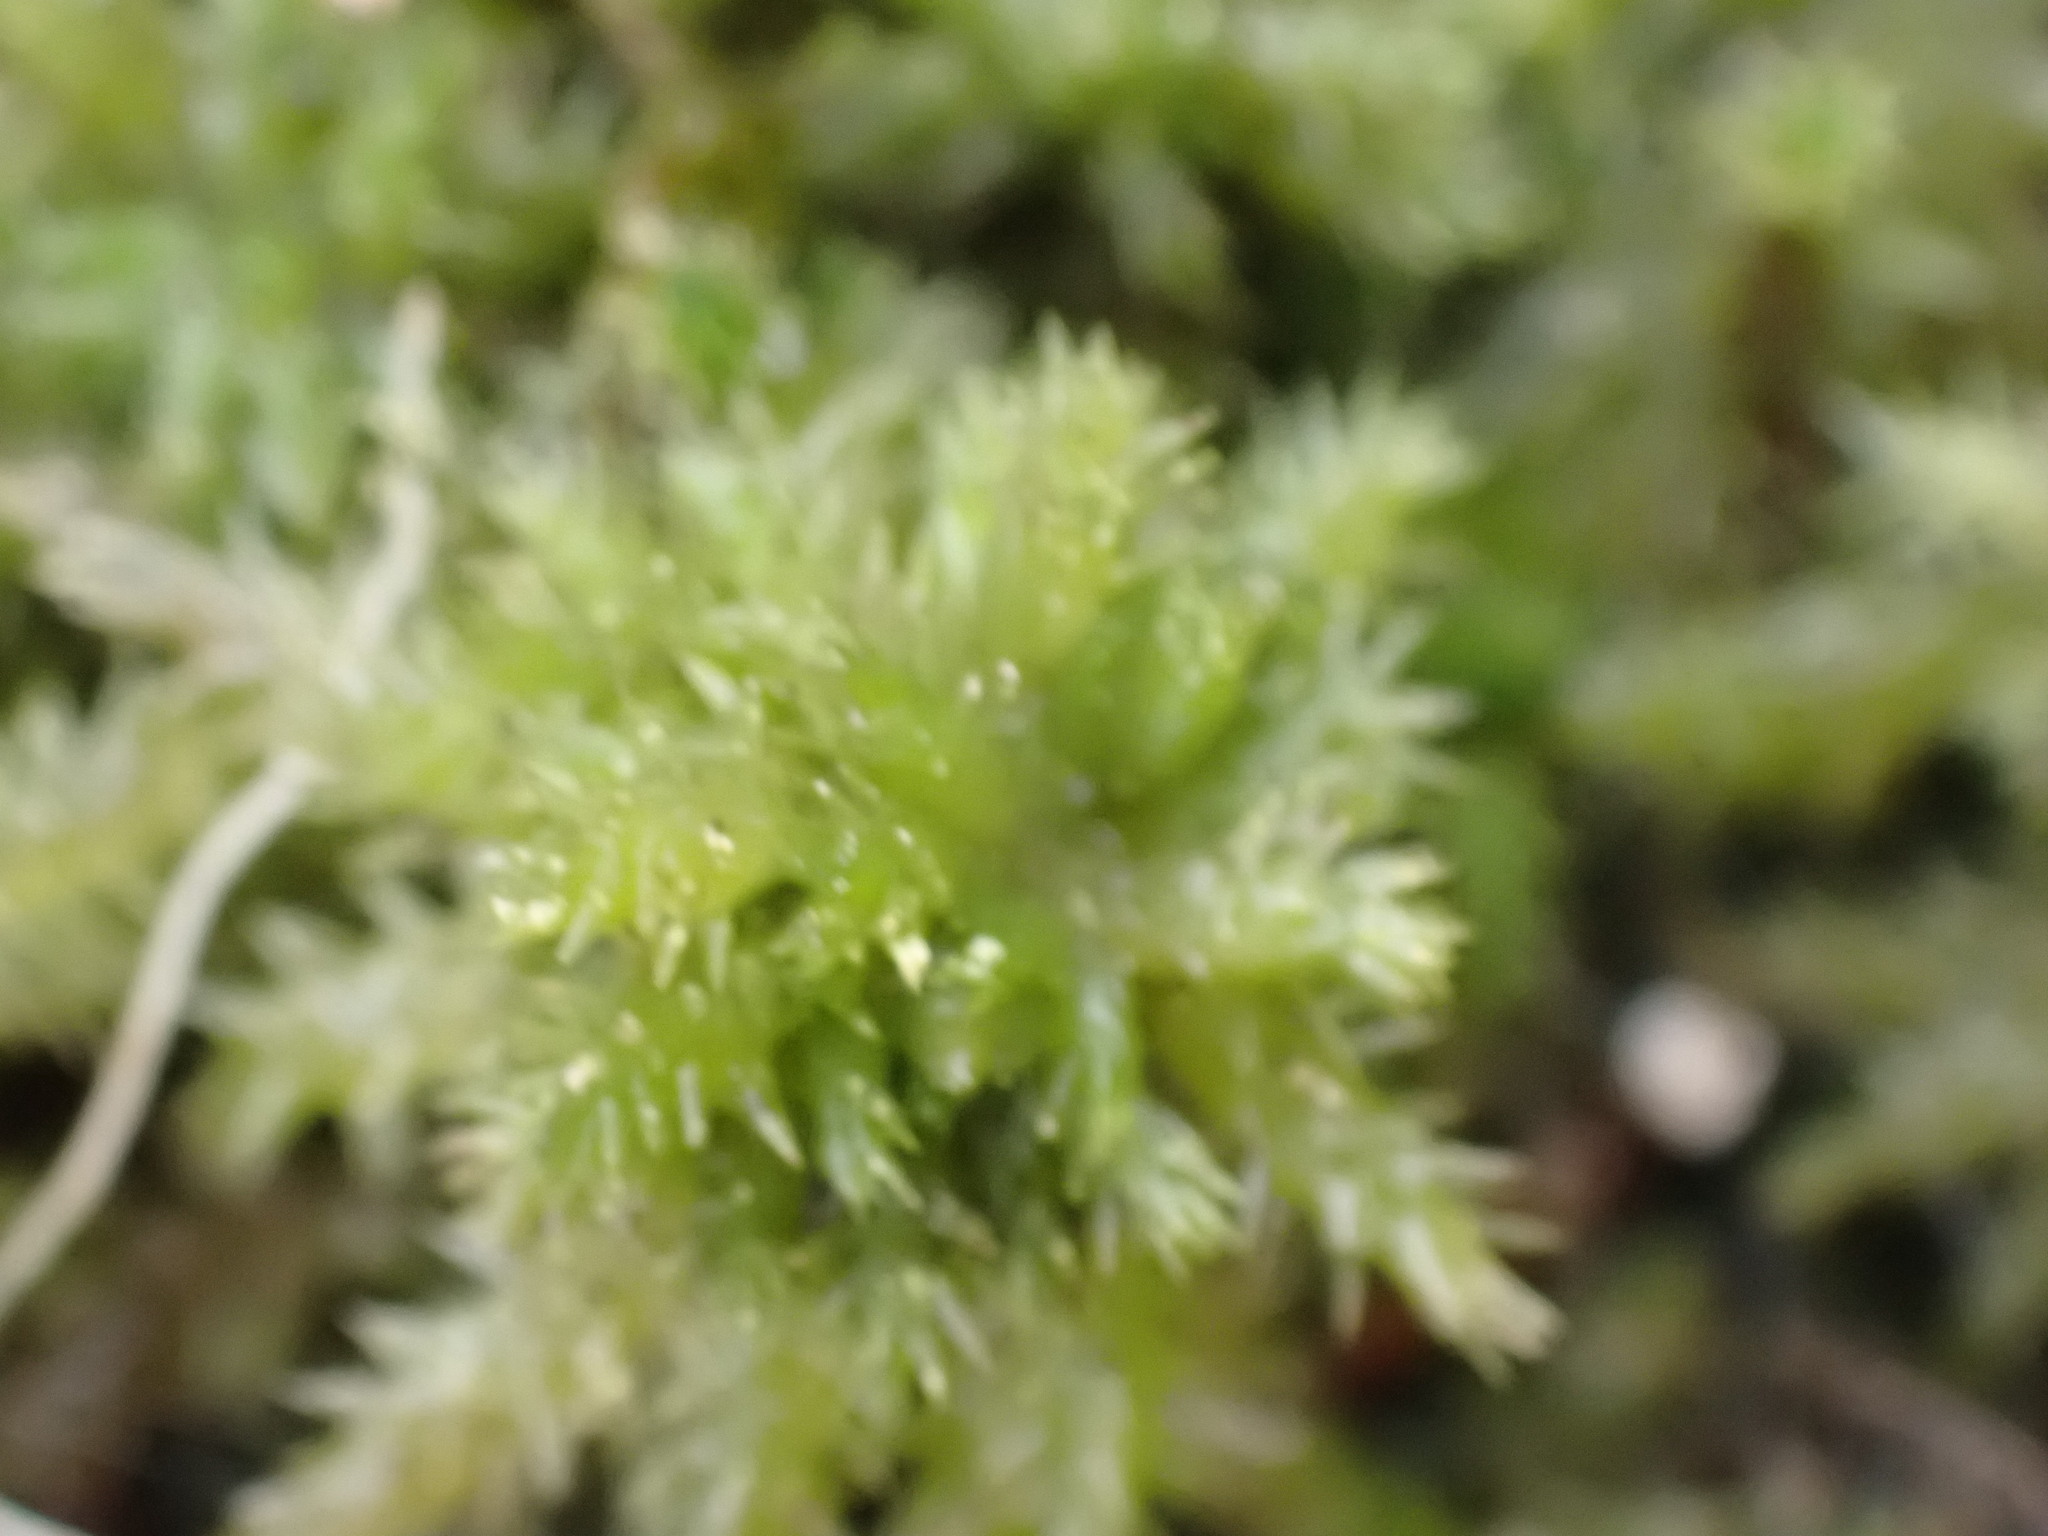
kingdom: Plantae
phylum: Bryophyta
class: Sphagnopsida
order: Sphagnales
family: Sphagnaceae
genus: Sphagnum
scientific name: Sphagnum squarrosum
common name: Shaggy peat moss
